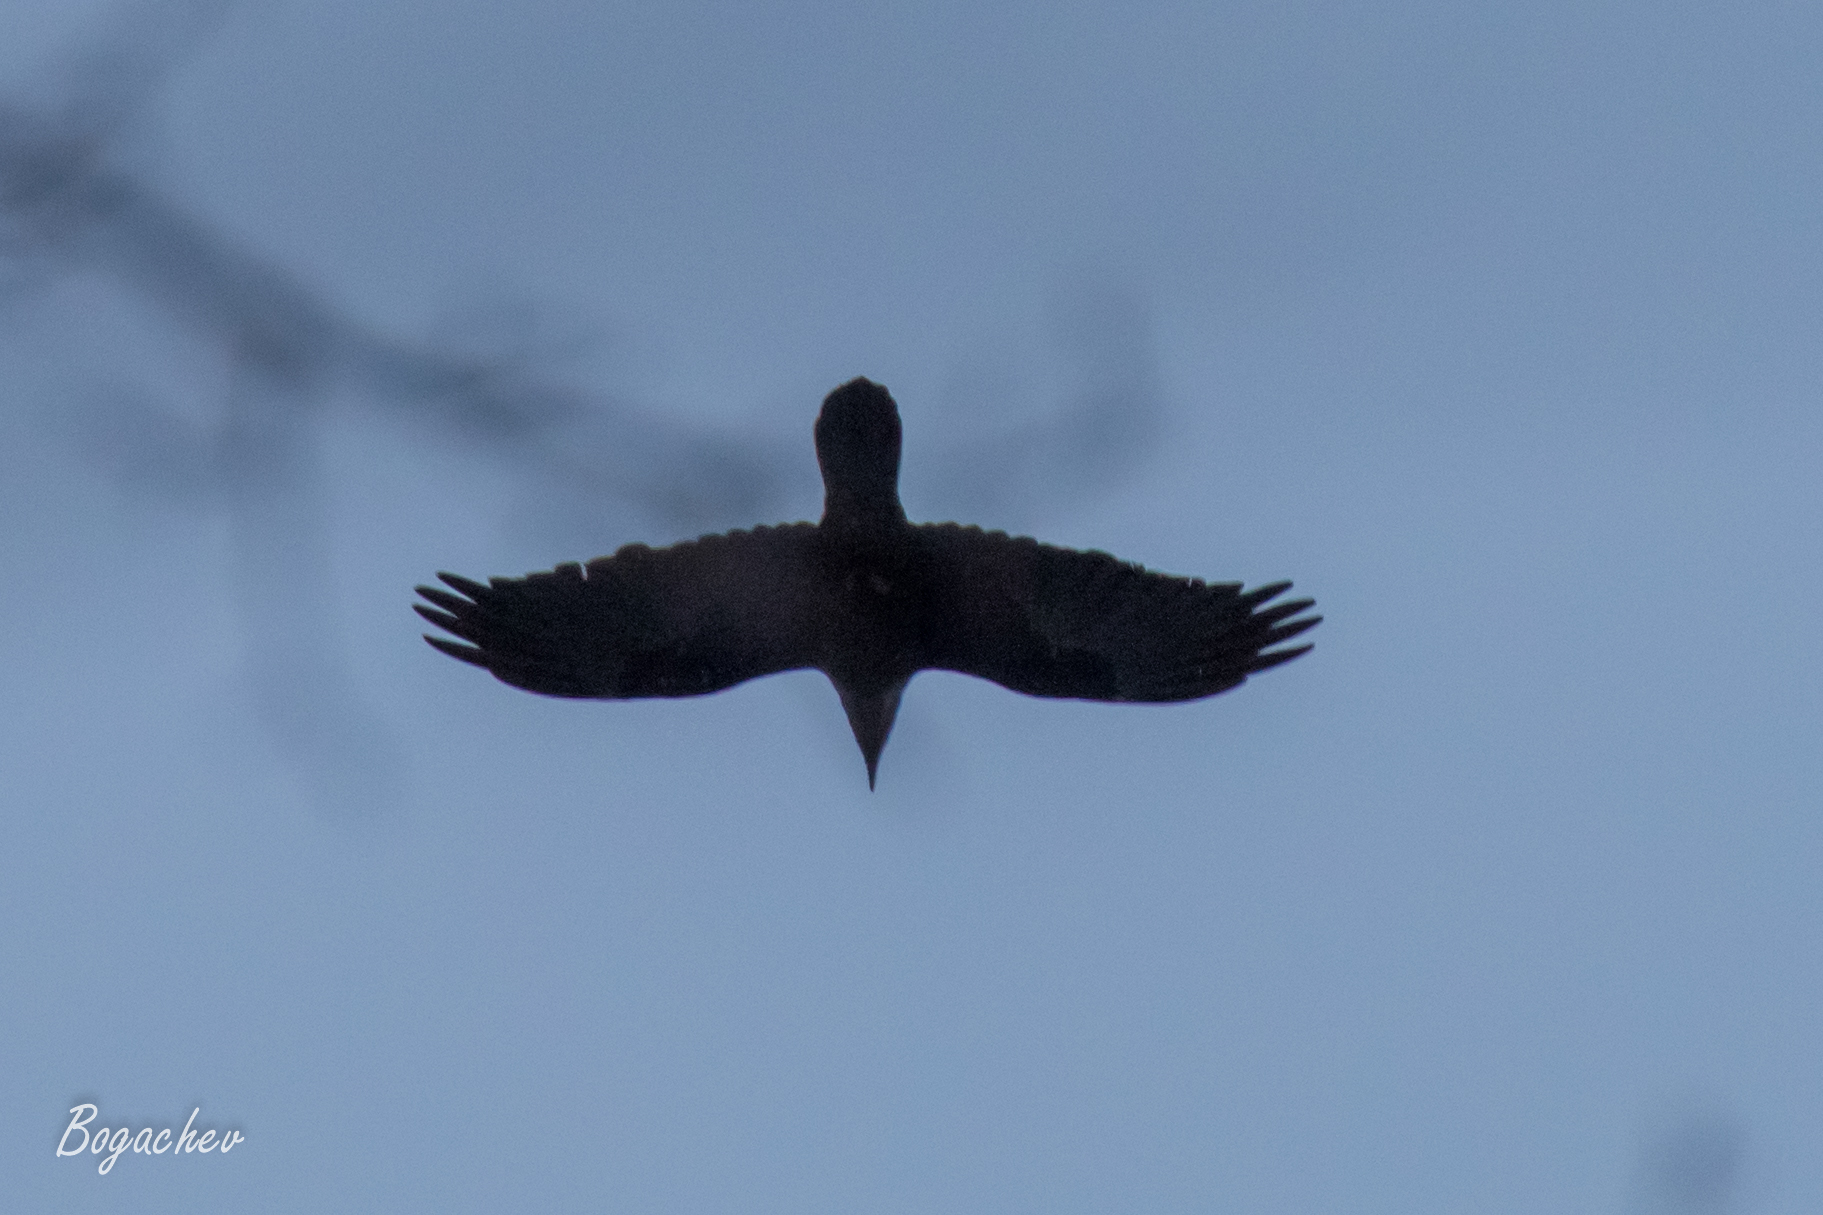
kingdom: Animalia
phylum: Chordata
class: Aves
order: Passeriformes
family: Corvidae
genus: Corvus
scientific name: Corvus corax
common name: Common raven
